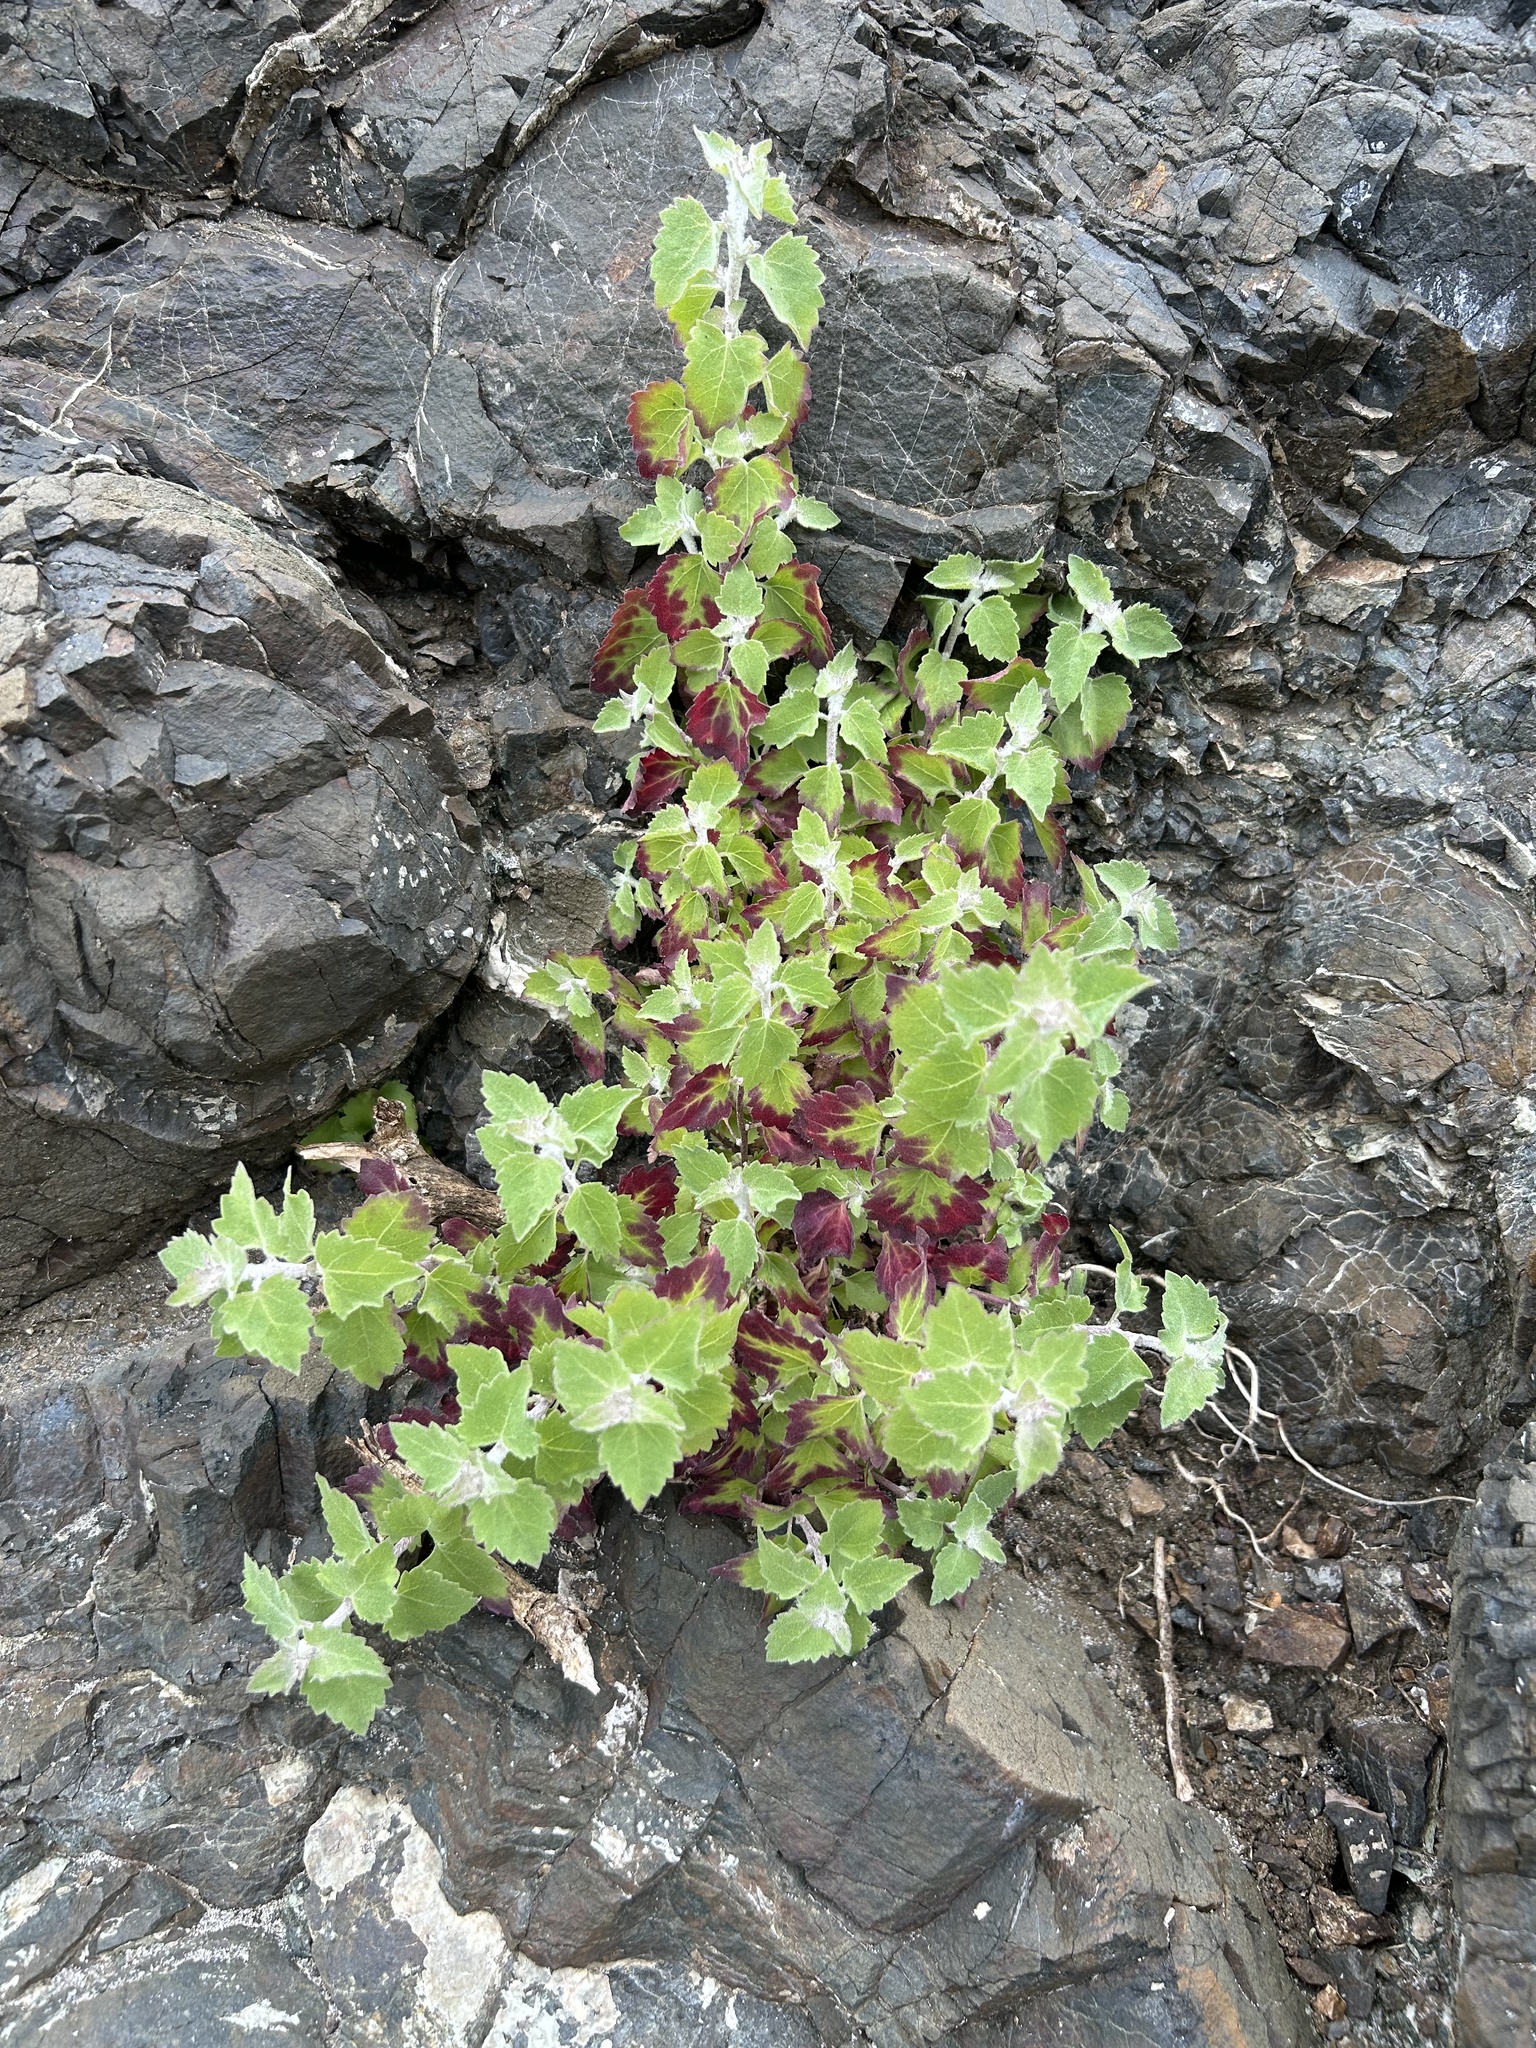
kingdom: Plantae
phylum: Tracheophyta
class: Magnoliopsida
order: Asterales
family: Asteraceae
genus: Brickellia
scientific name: Brickellia californica
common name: California brickellbush
